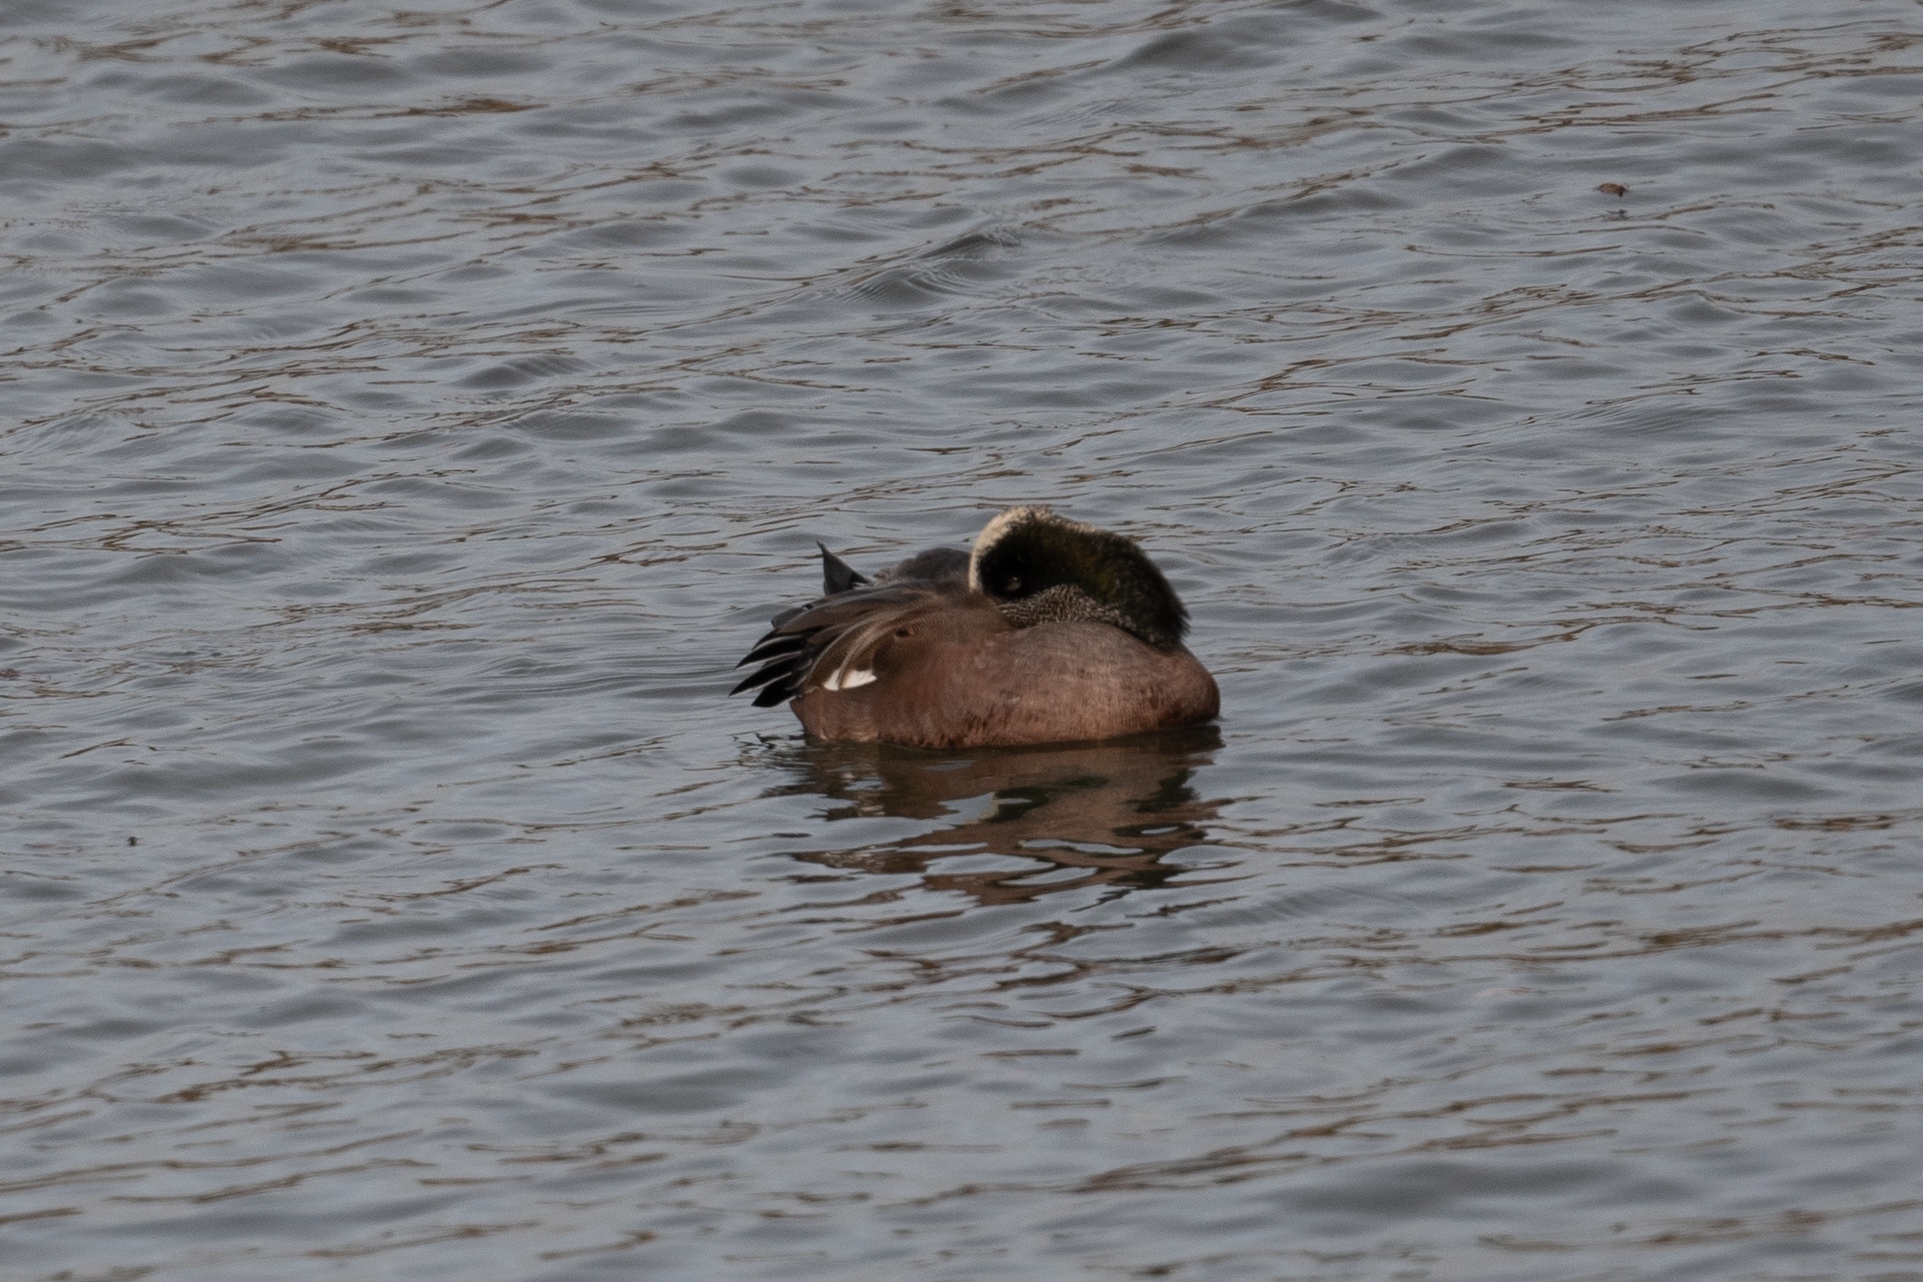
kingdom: Animalia
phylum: Chordata
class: Aves
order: Anseriformes
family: Anatidae
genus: Mareca
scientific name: Mareca americana
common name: American wigeon
